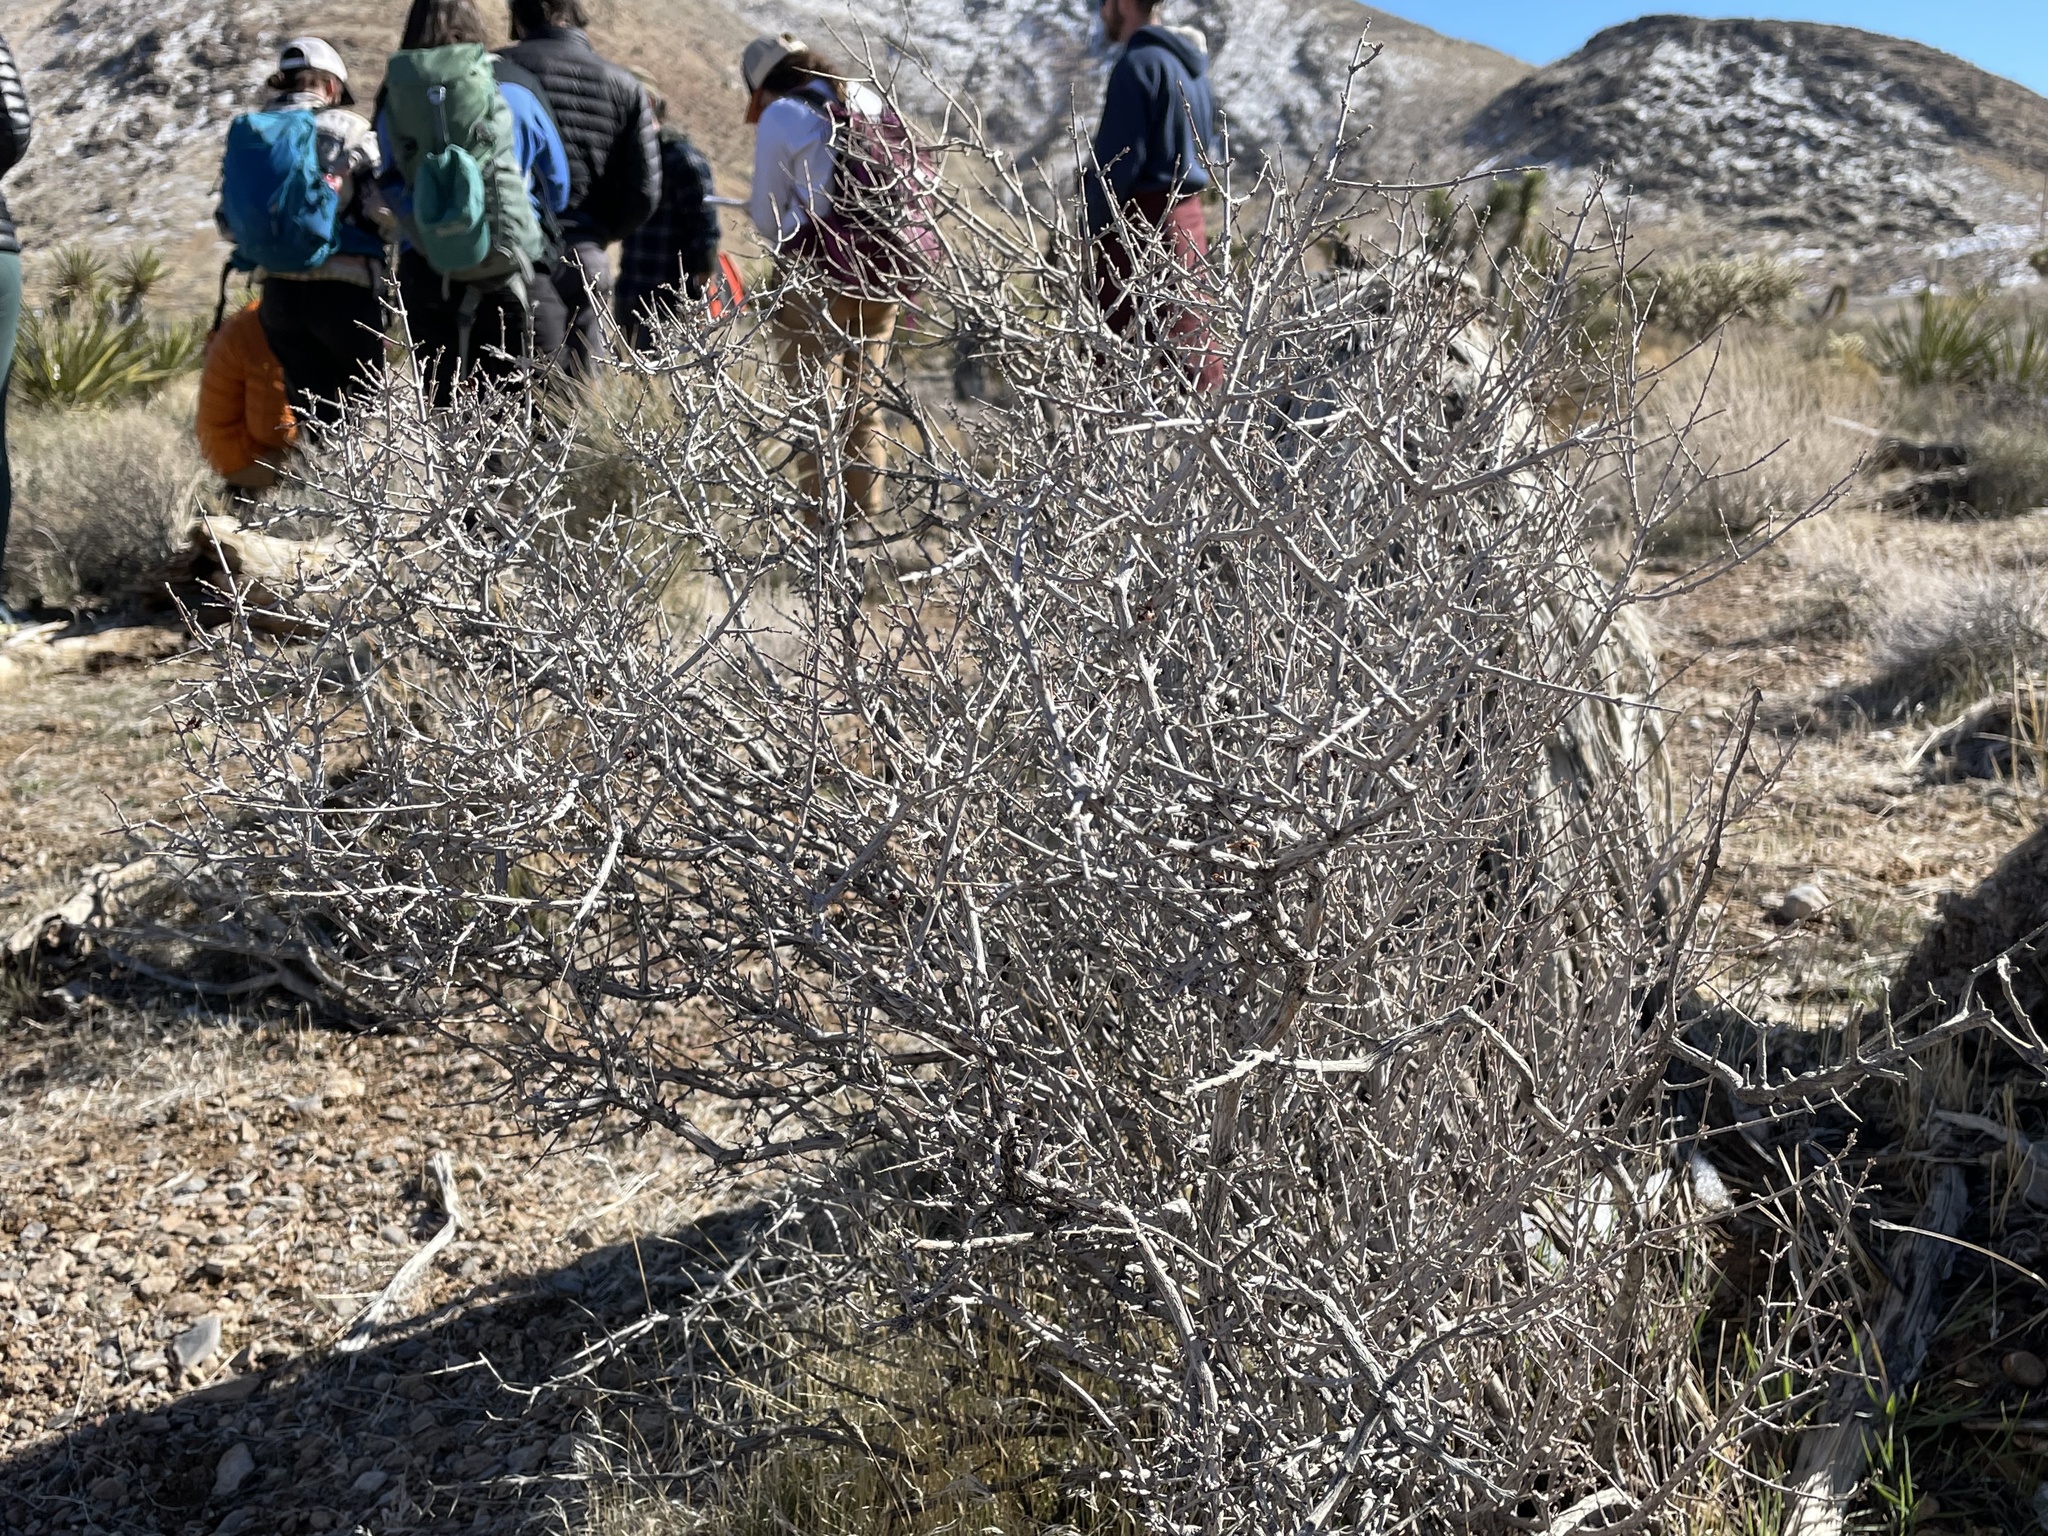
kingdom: Plantae
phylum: Tracheophyta
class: Magnoliopsida
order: Rosales
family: Rosaceae
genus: Coleogyne
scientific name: Coleogyne ramosissima
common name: Blackbrush
